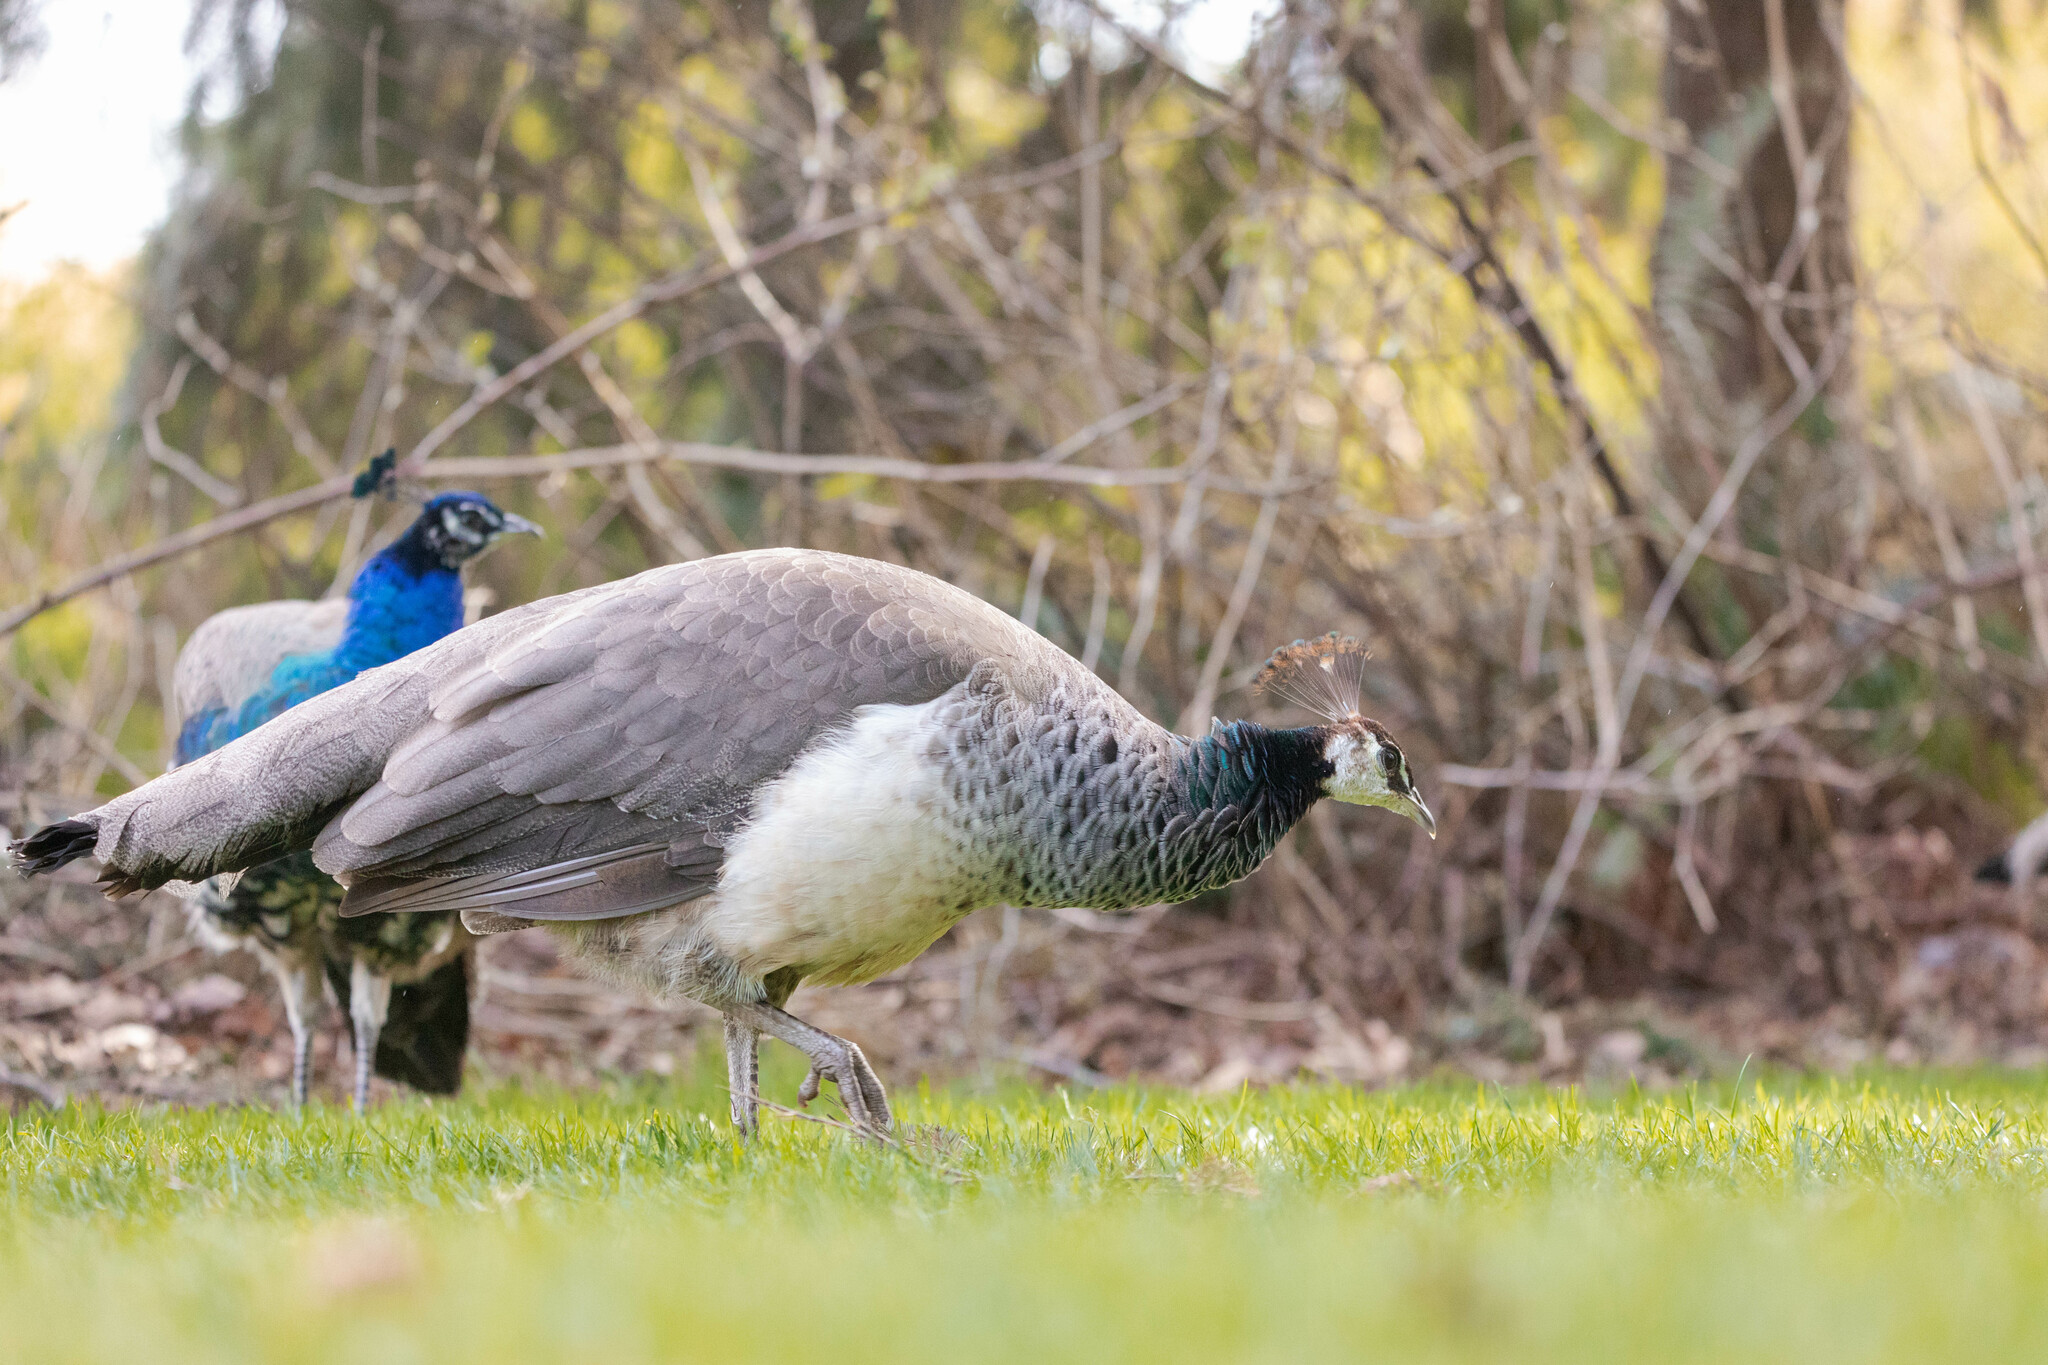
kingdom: Animalia
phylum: Chordata
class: Aves
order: Galliformes
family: Phasianidae
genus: Pavo
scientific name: Pavo cristatus
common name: Indian peafowl
